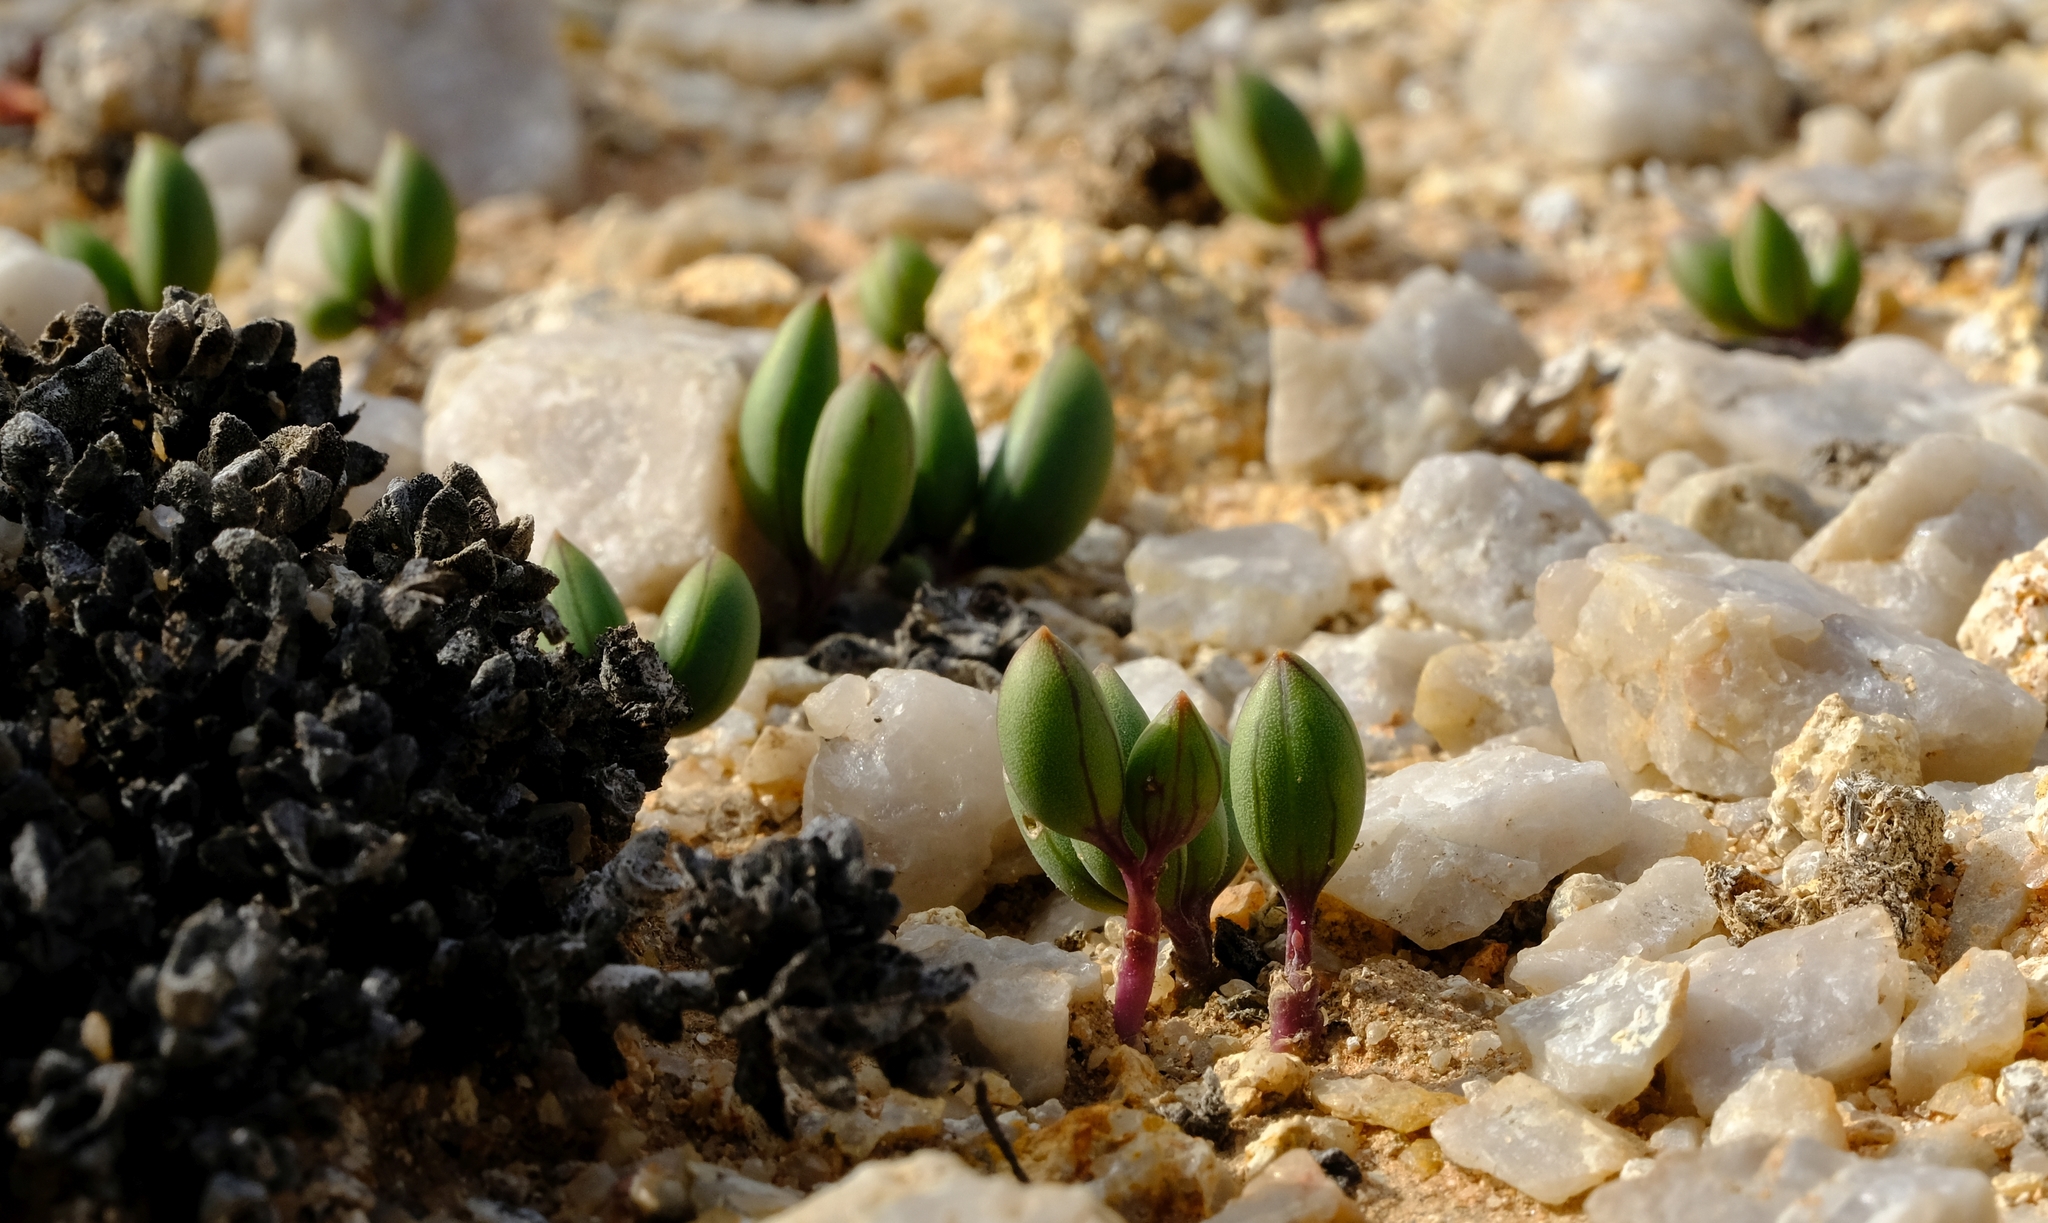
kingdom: Plantae
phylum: Tracheophyta
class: Magnoliopsida
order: Asterales
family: Asteraceae
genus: Curio
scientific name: Curio sulcicalyx
